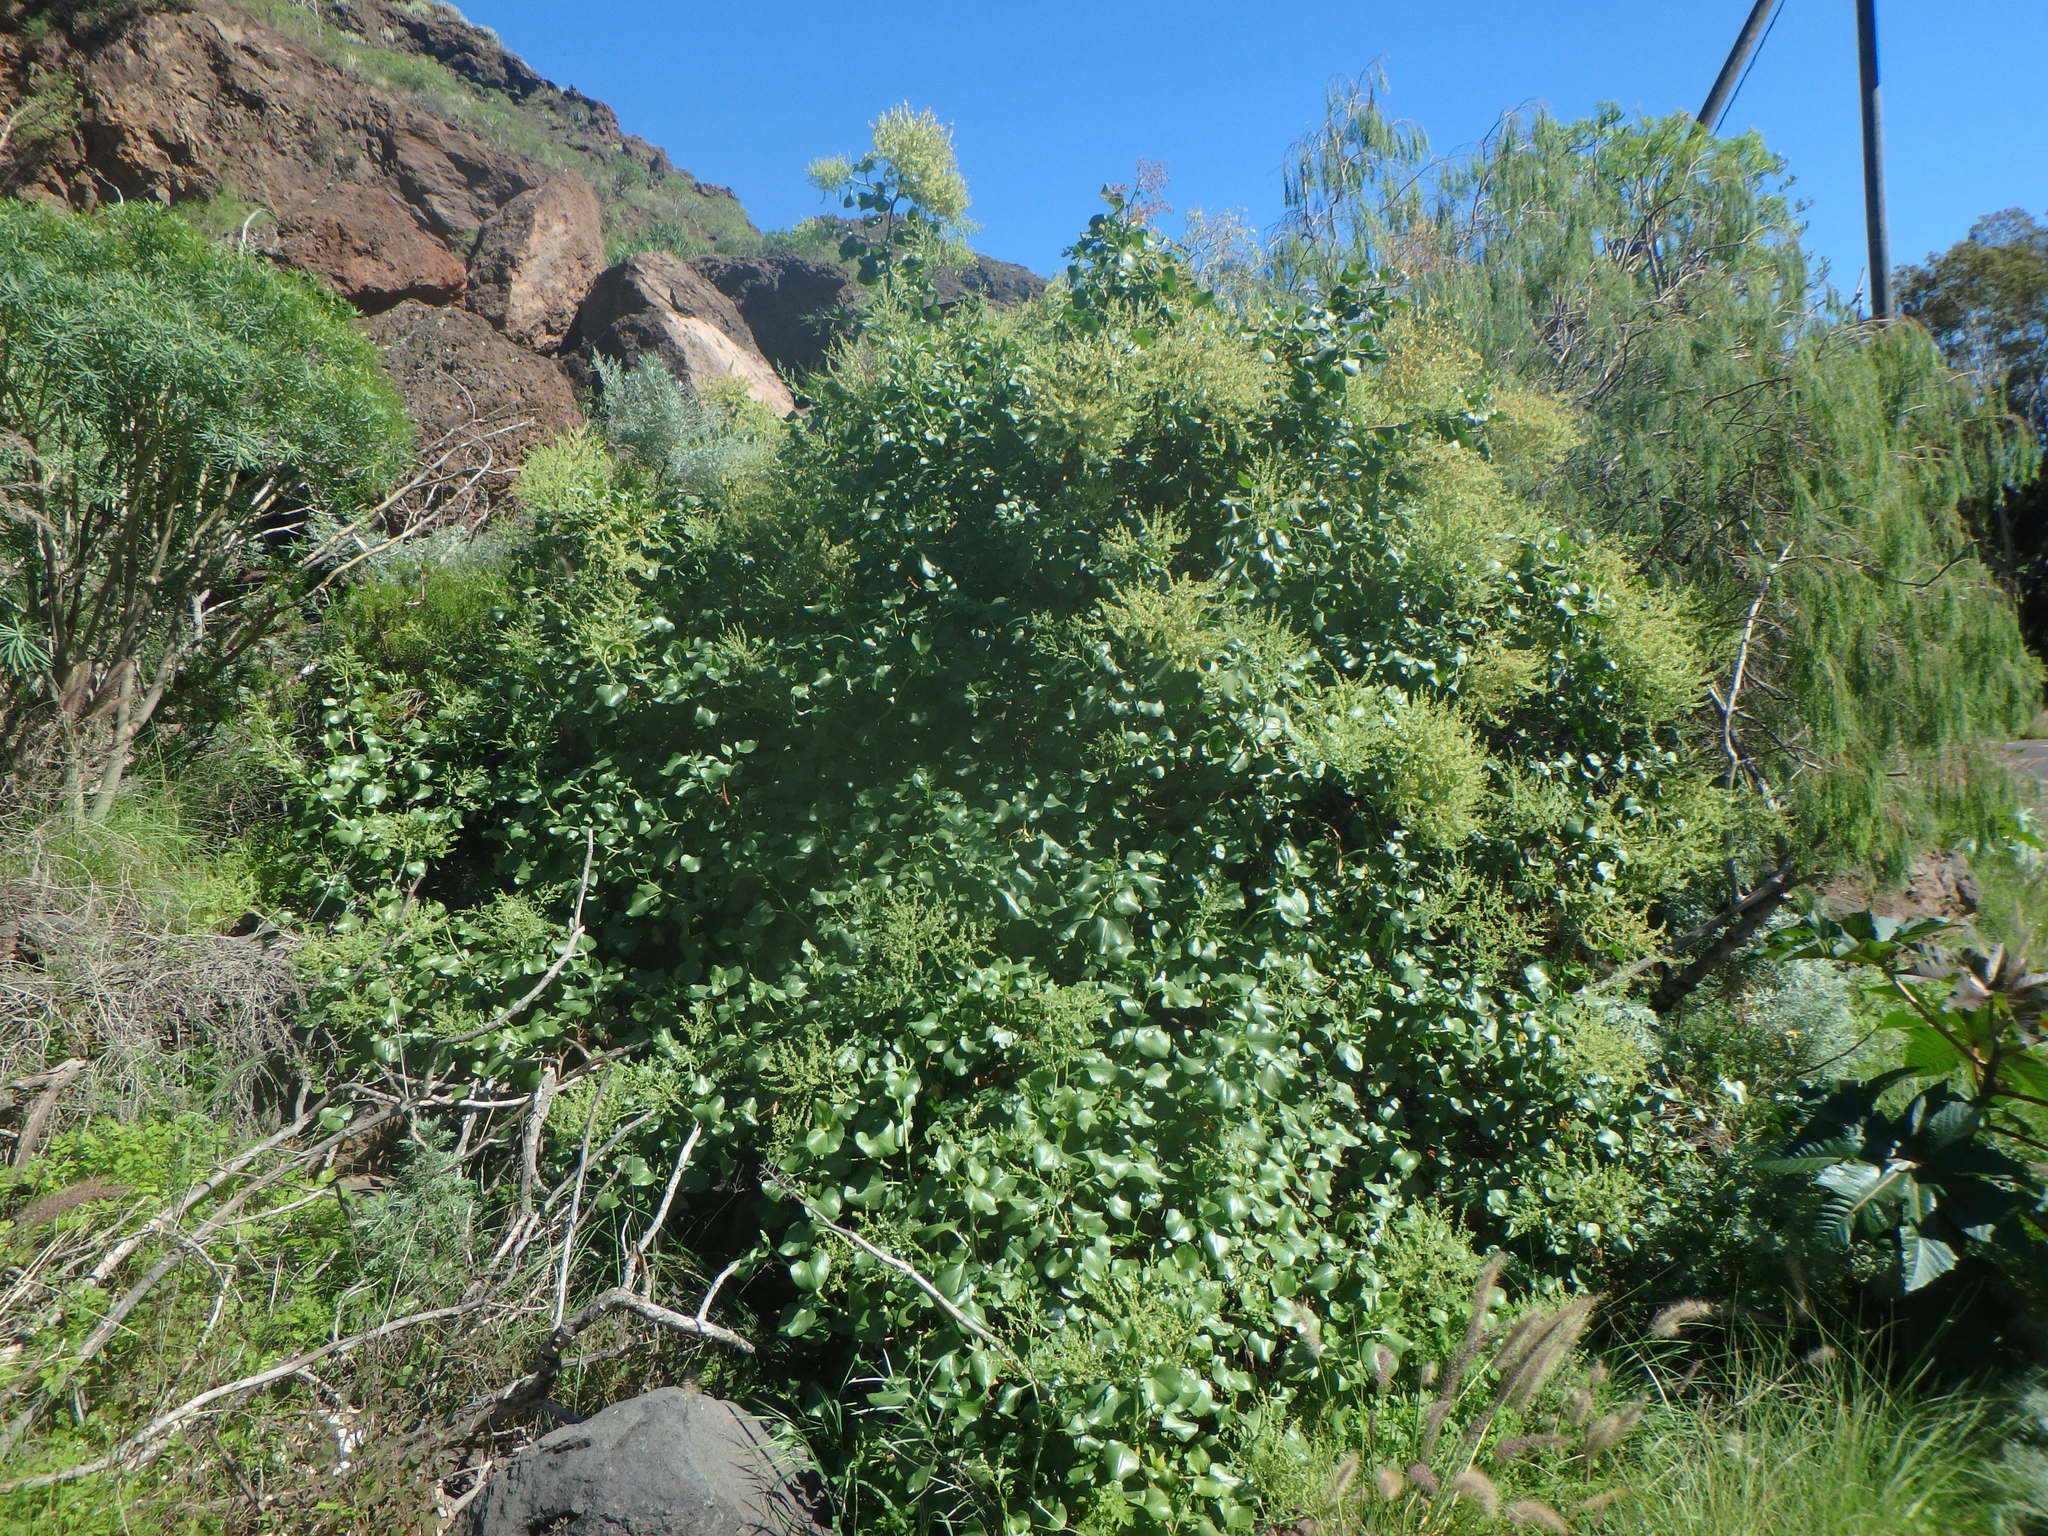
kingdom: Plantae
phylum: Tracheophyta
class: Magnoliopsida
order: Caryophyllales
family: Polygonaceae
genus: Rumex
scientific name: Rumex lunaria
